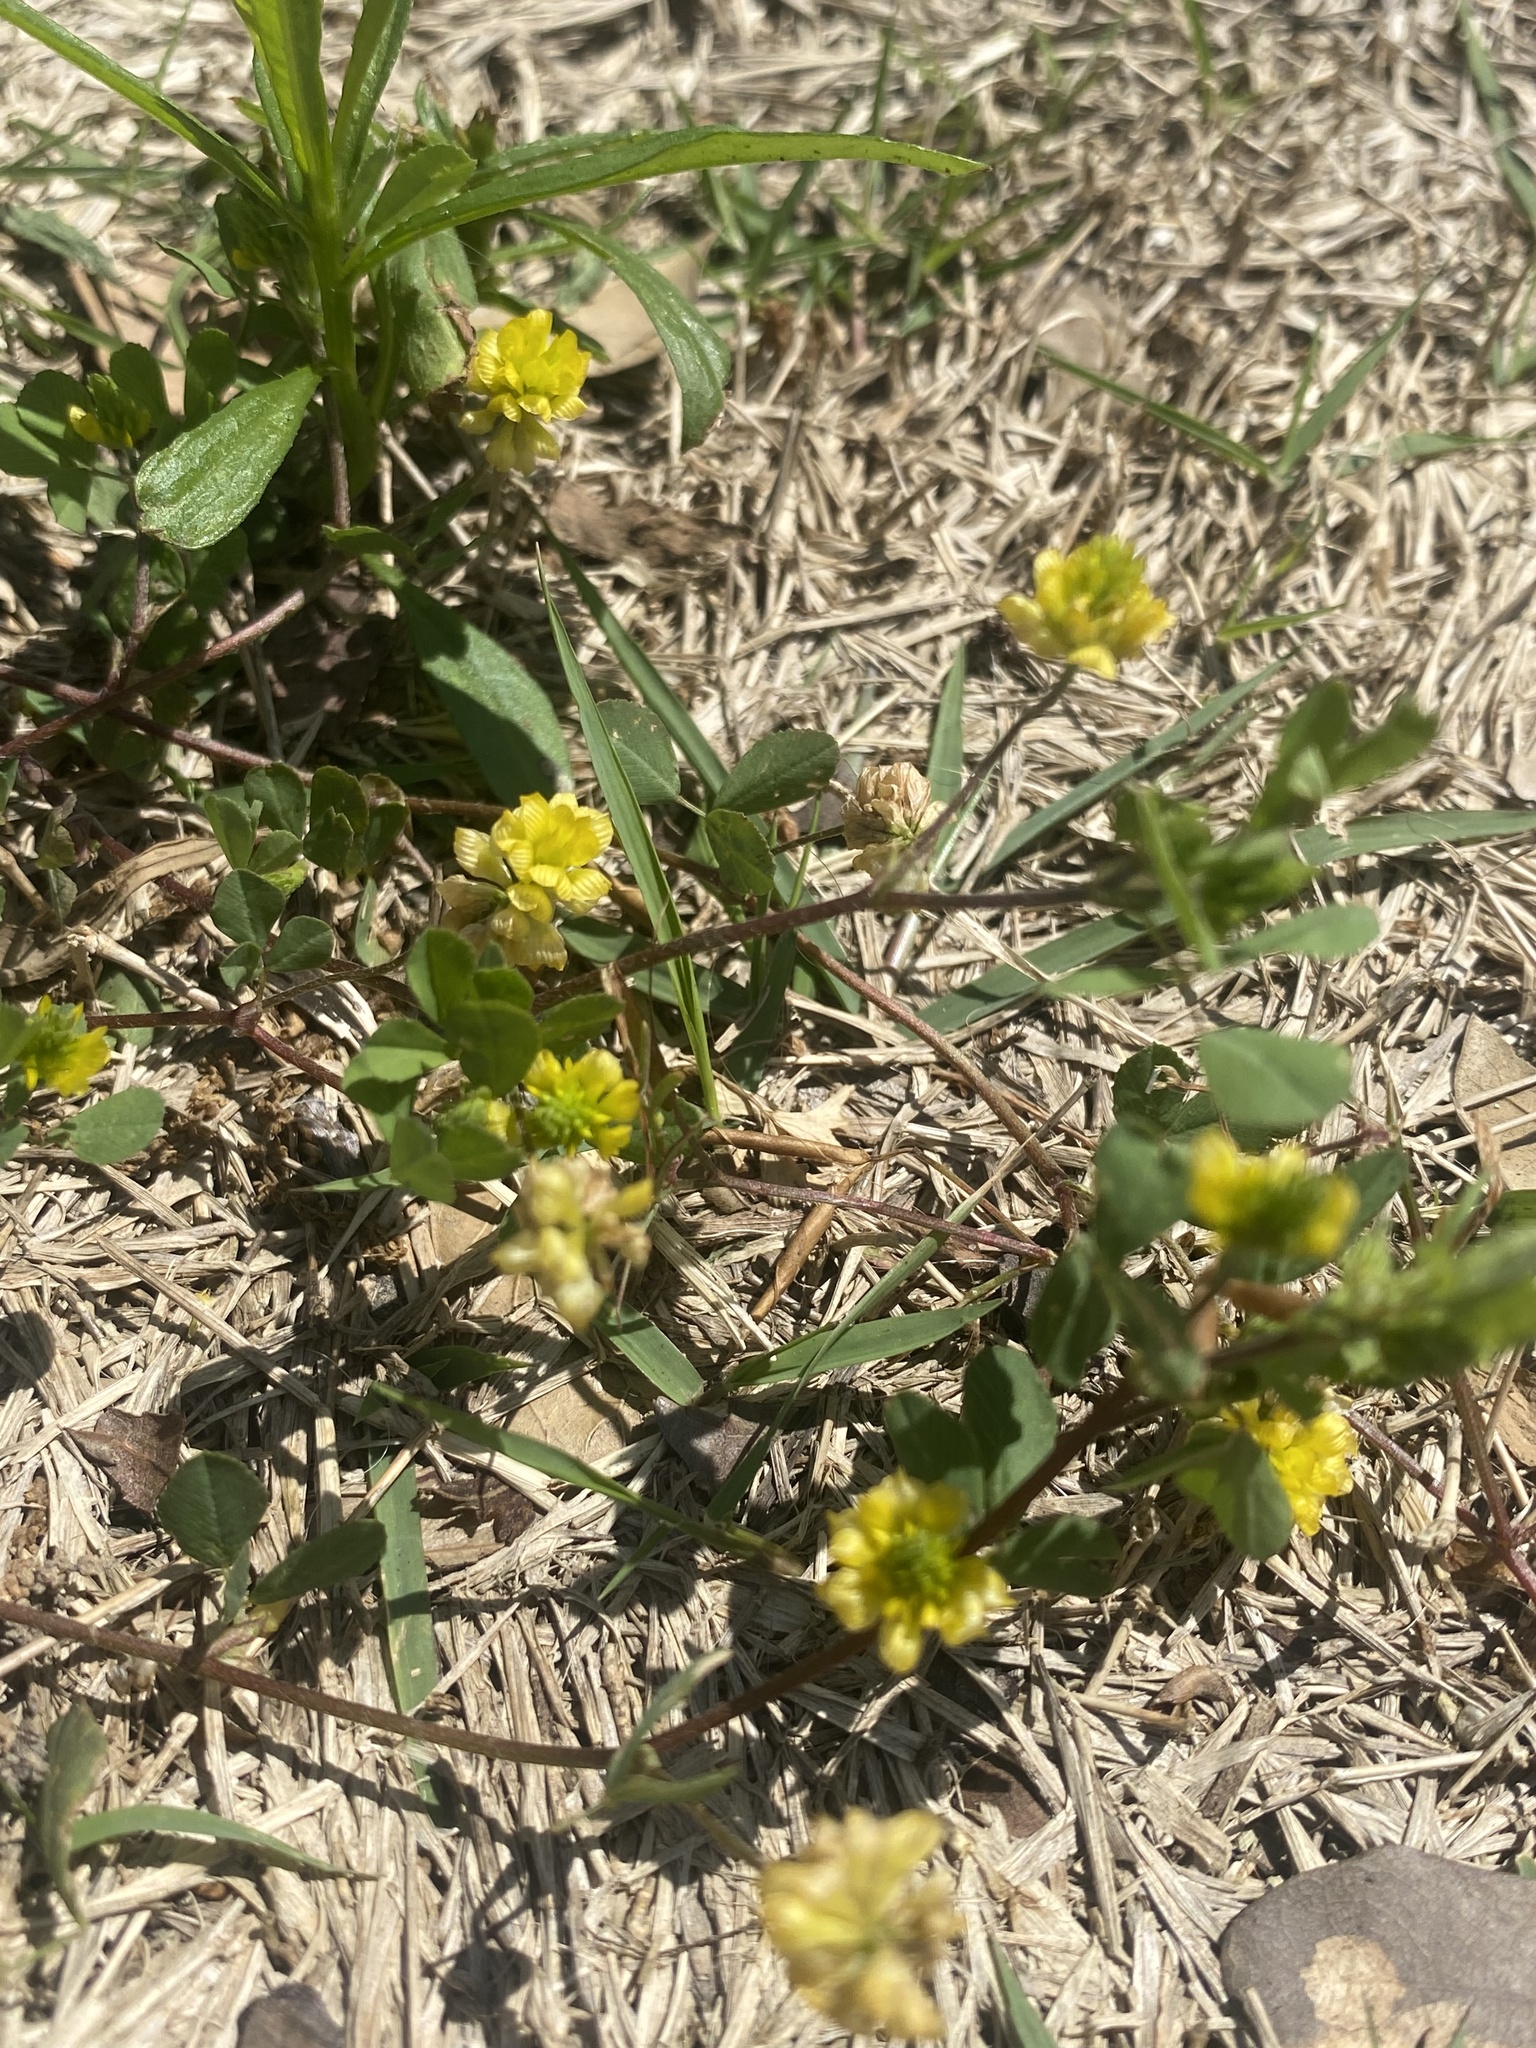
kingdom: Plantae
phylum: Tracheophyta
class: Magnoliopsida
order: Fabales
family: Fabaceae
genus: Trifolium
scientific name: Trifolium campestre
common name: Field clover
